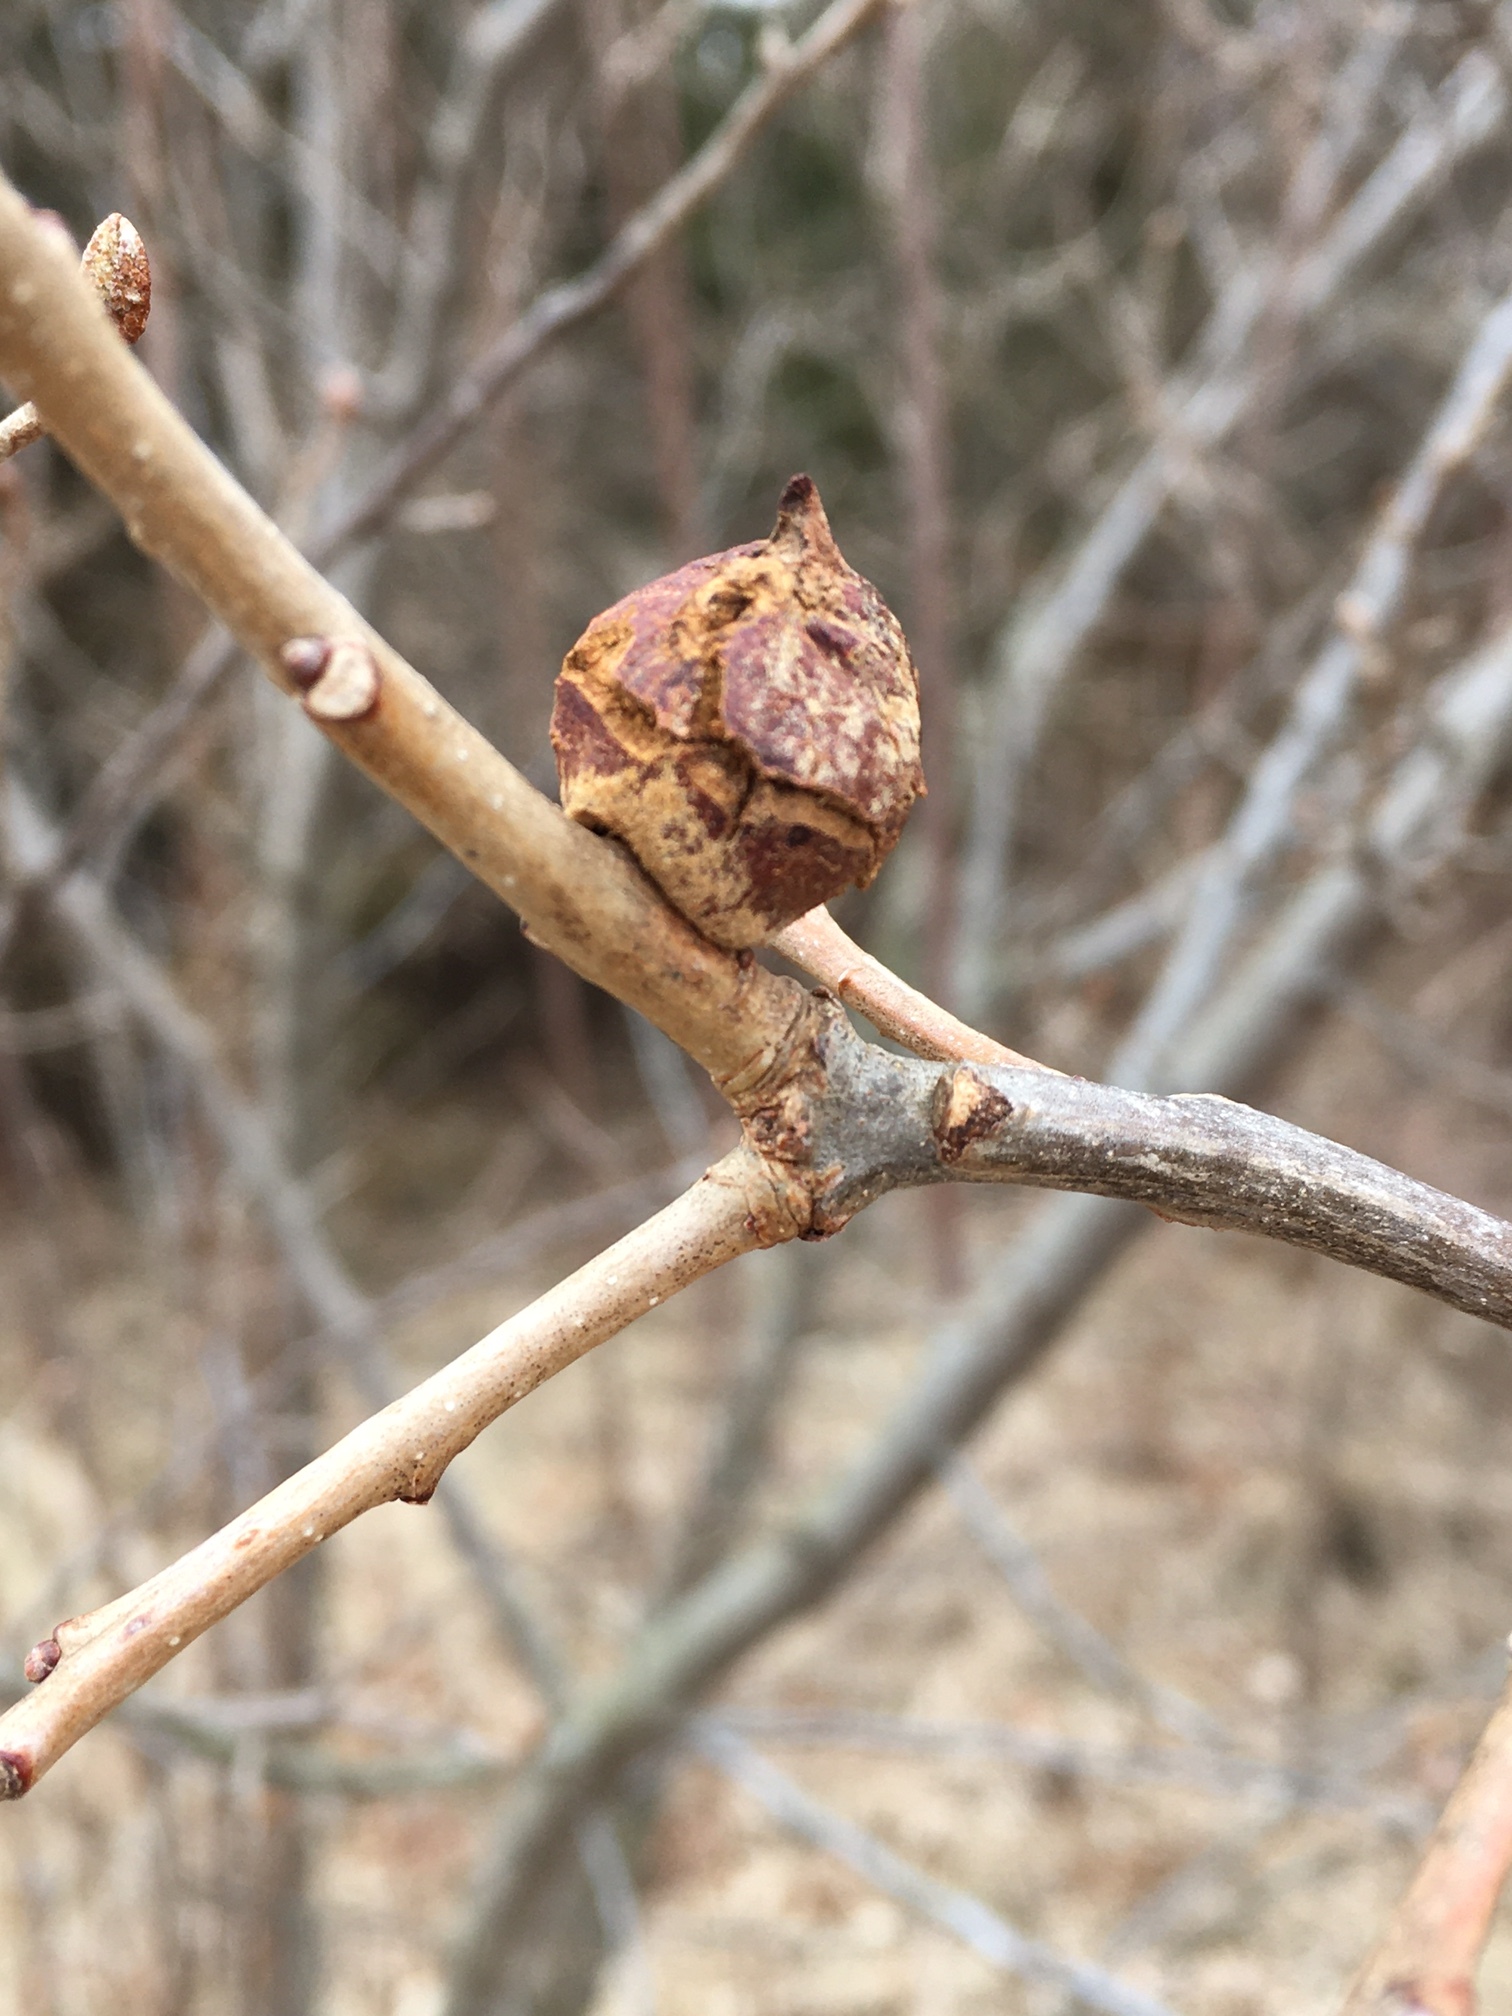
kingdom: Animalia
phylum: Arthropoda
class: Insecta
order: Hymenoptera
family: Cynipidae
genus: Disholcaspis
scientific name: Disholcaspis
